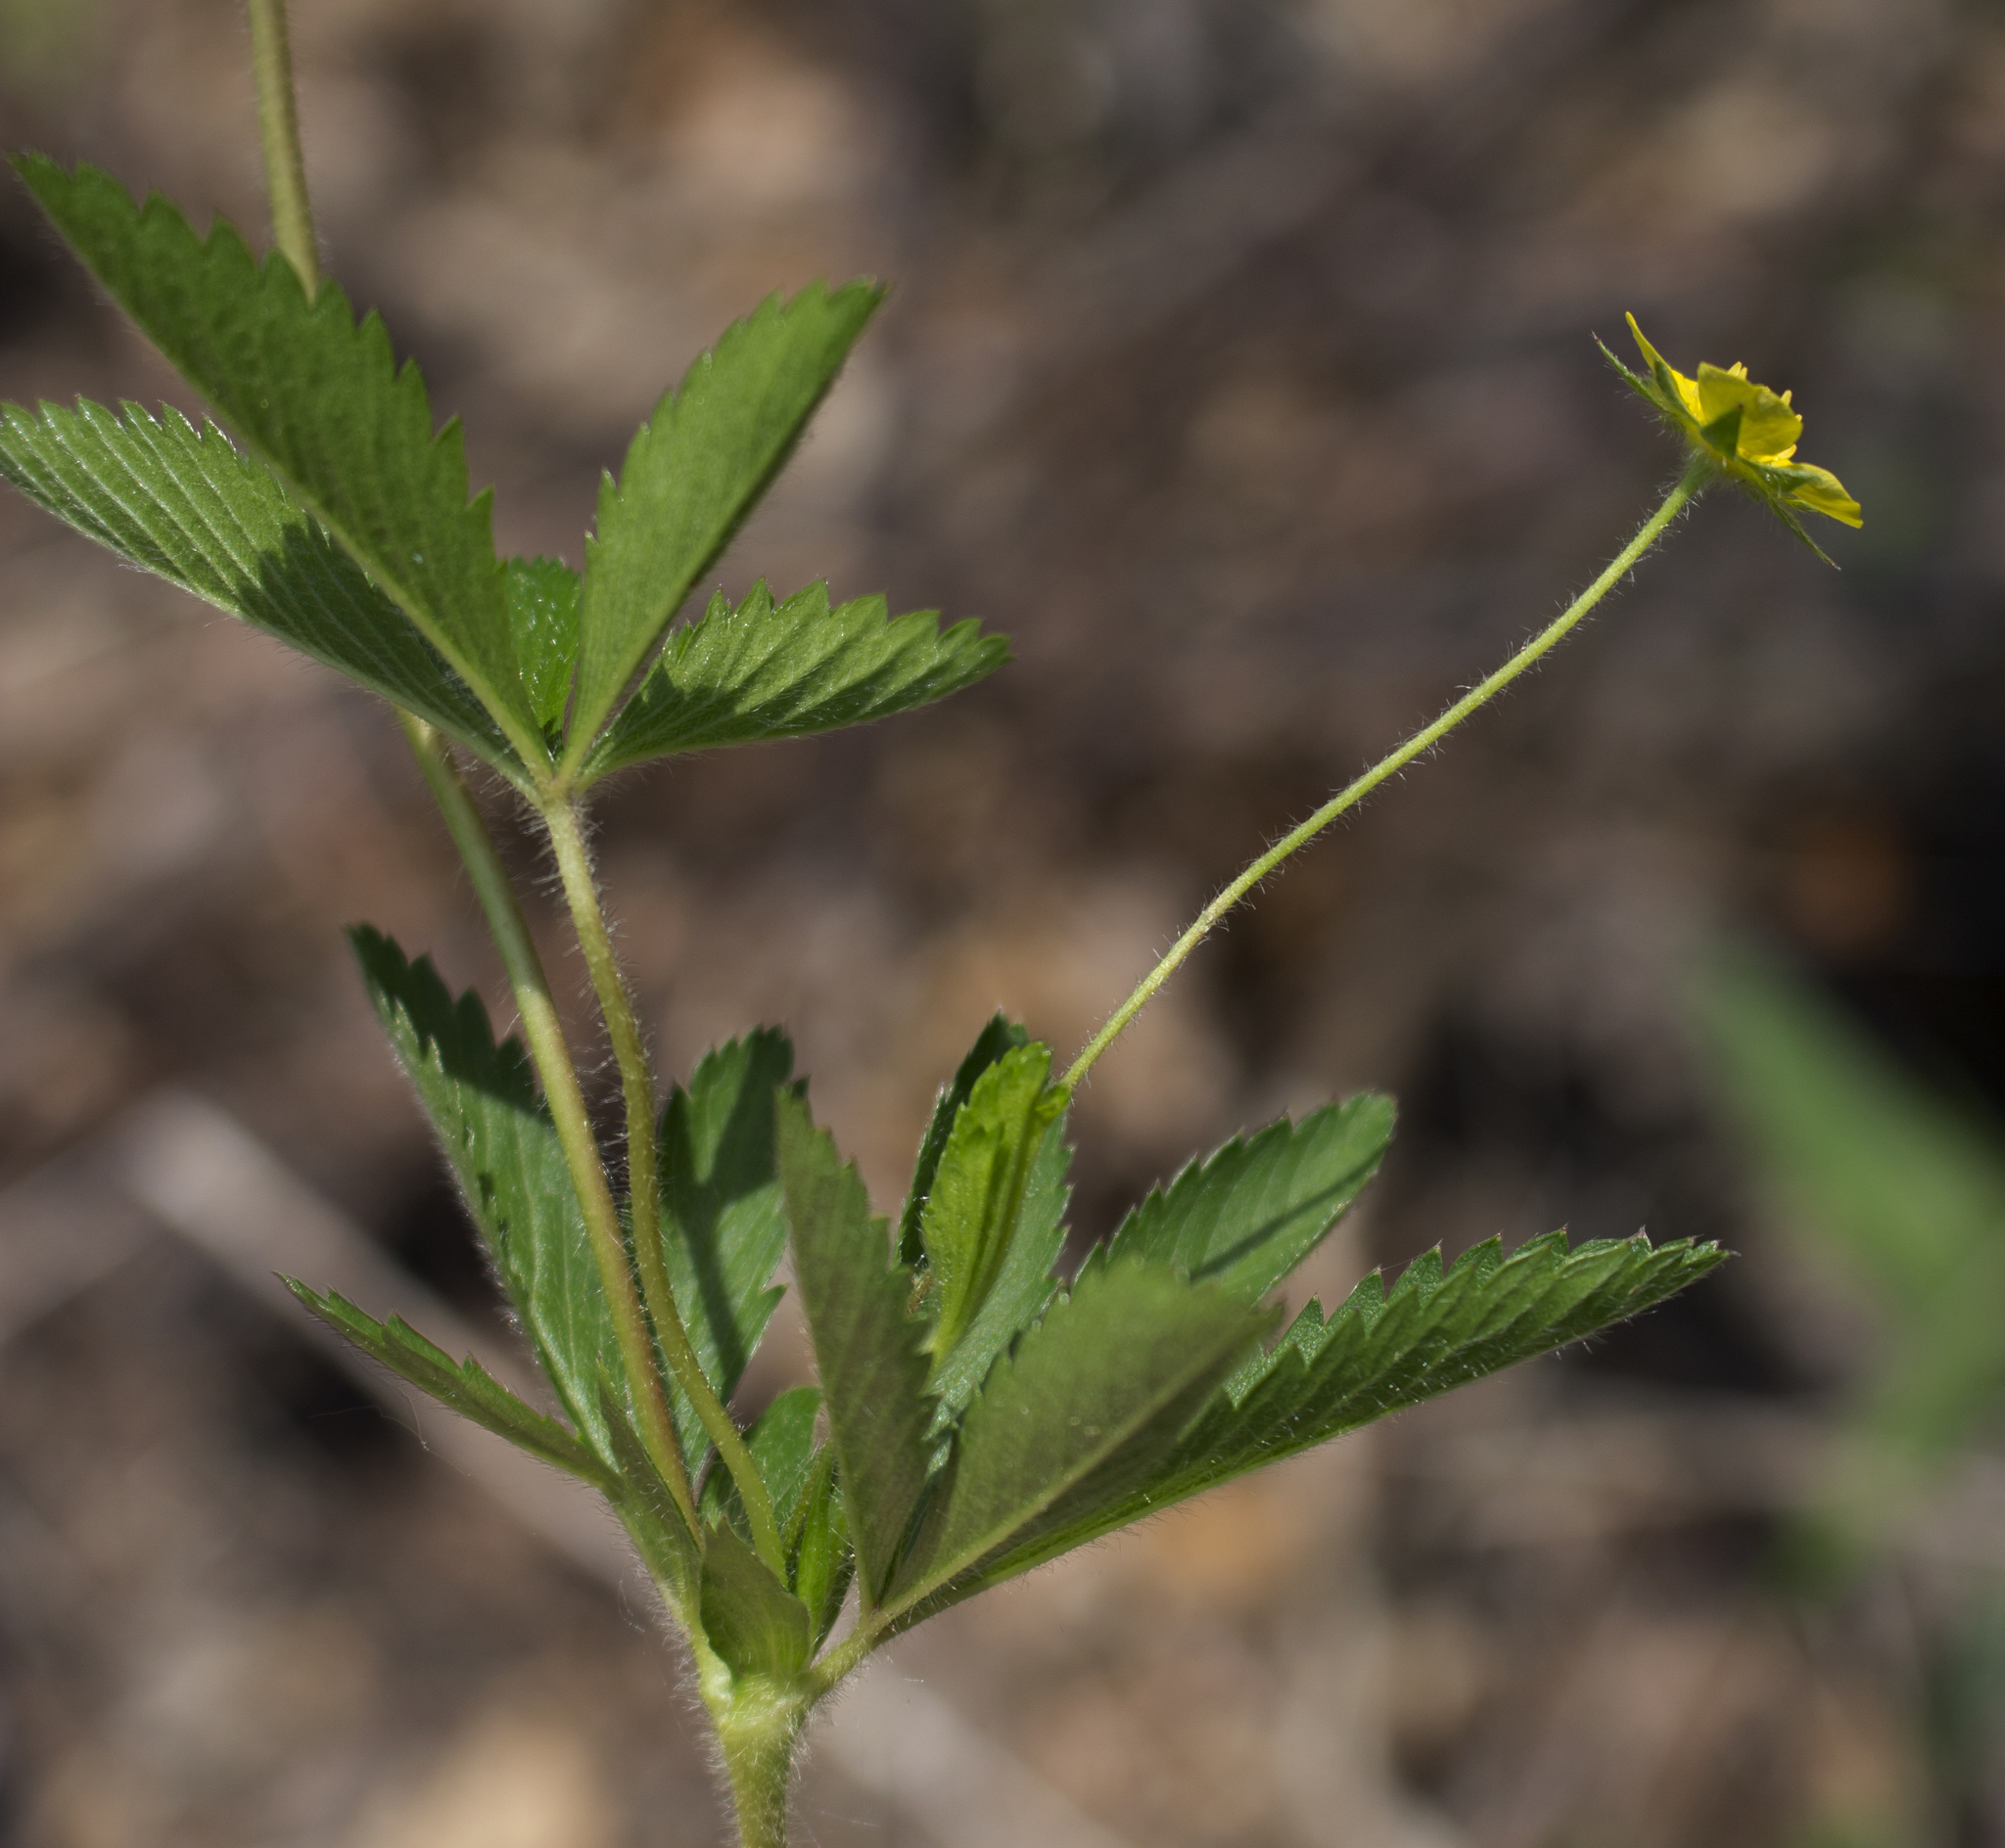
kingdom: Plantae
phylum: Tracheophyta
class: Magnoliopsida
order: Rosales
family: Rosaceae
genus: Potentilla
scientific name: Potentilla simplex
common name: Old field cinquefoil
